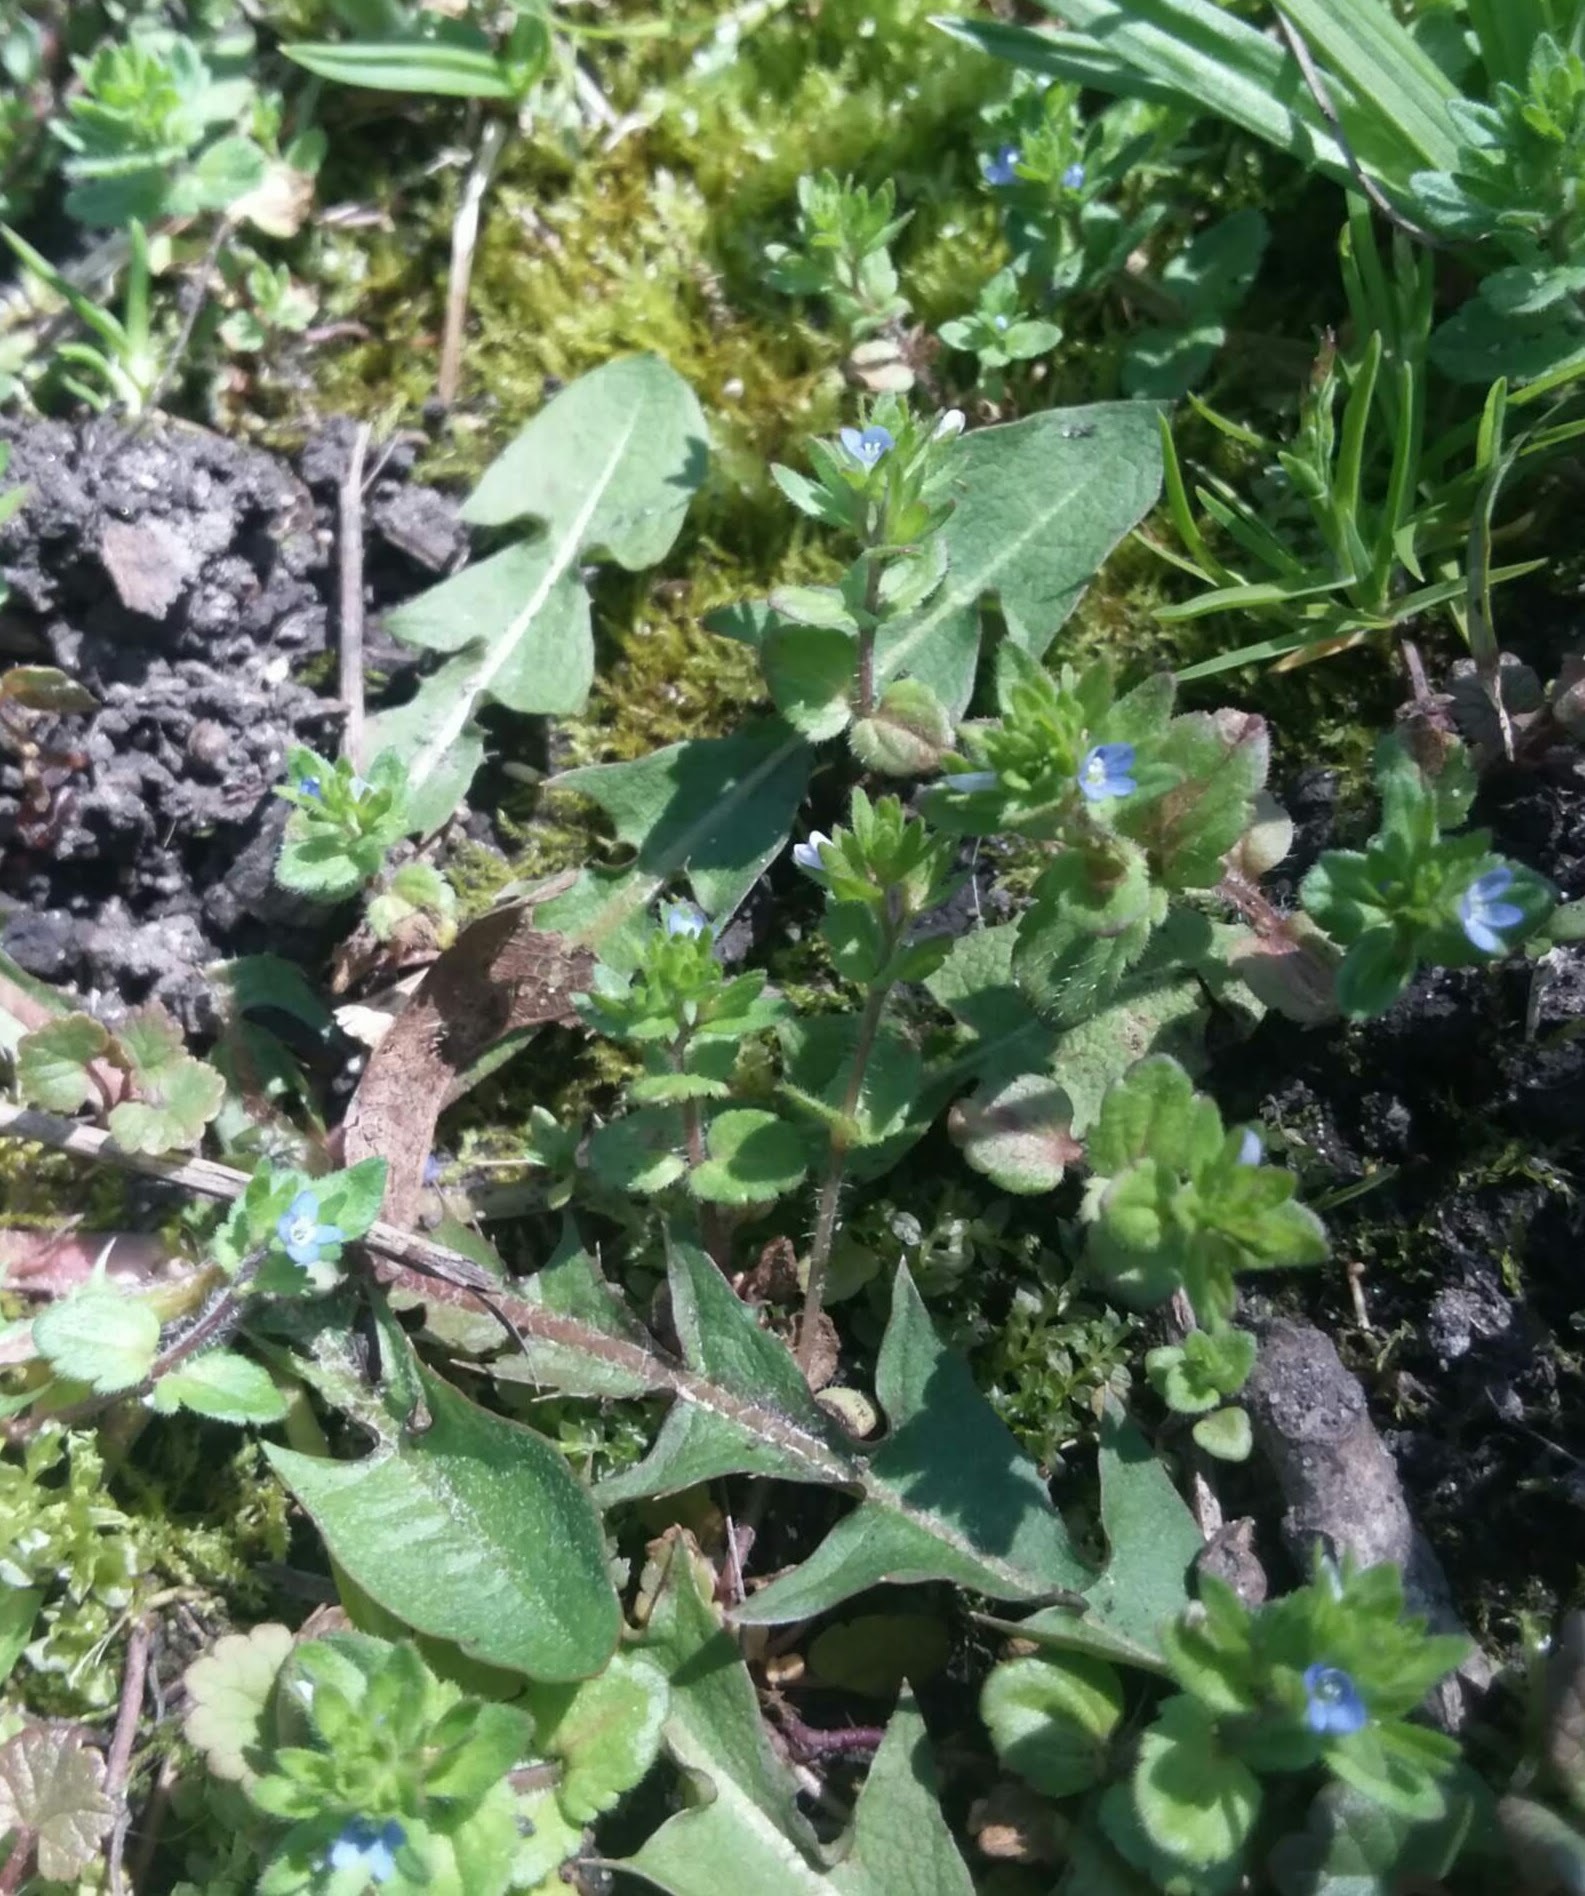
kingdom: Plantae
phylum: Tracheophyta
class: Magnoliopsida
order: Lamiales
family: Plantaginaceae
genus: Veronica
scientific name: Veronica arvensis
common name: Corn speedwell
